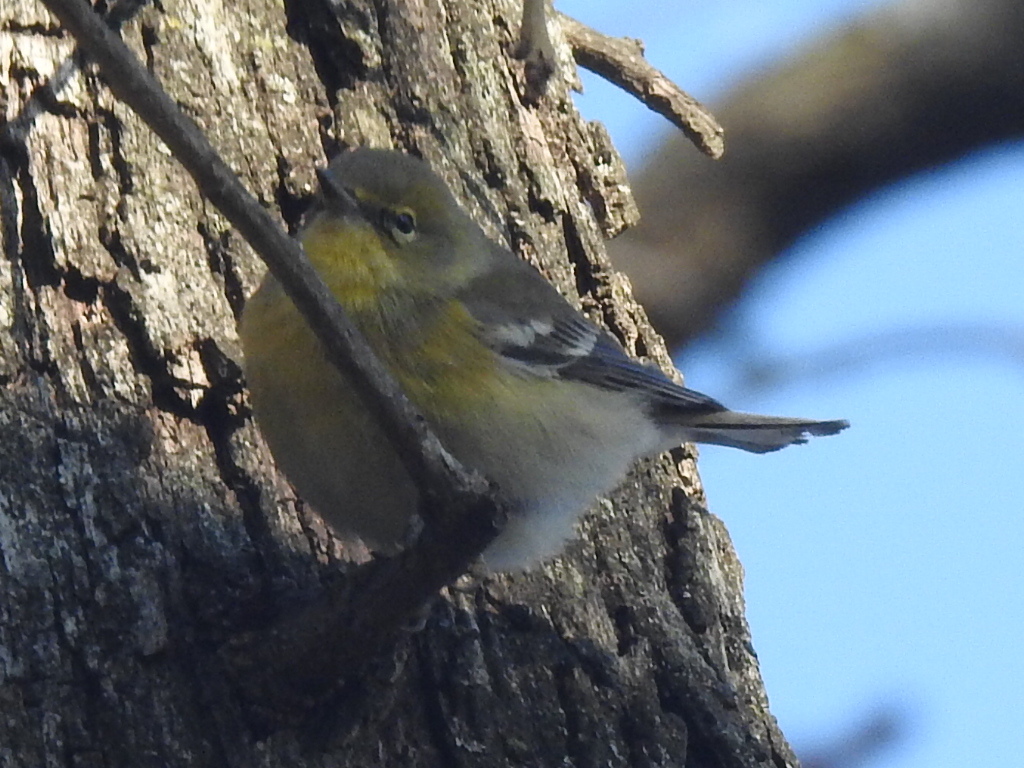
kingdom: Animalia
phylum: Chordata
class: Aves
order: Passeriformes
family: Parulidae
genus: Setophaga
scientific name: Setophaga pinus
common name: Pine warbler
